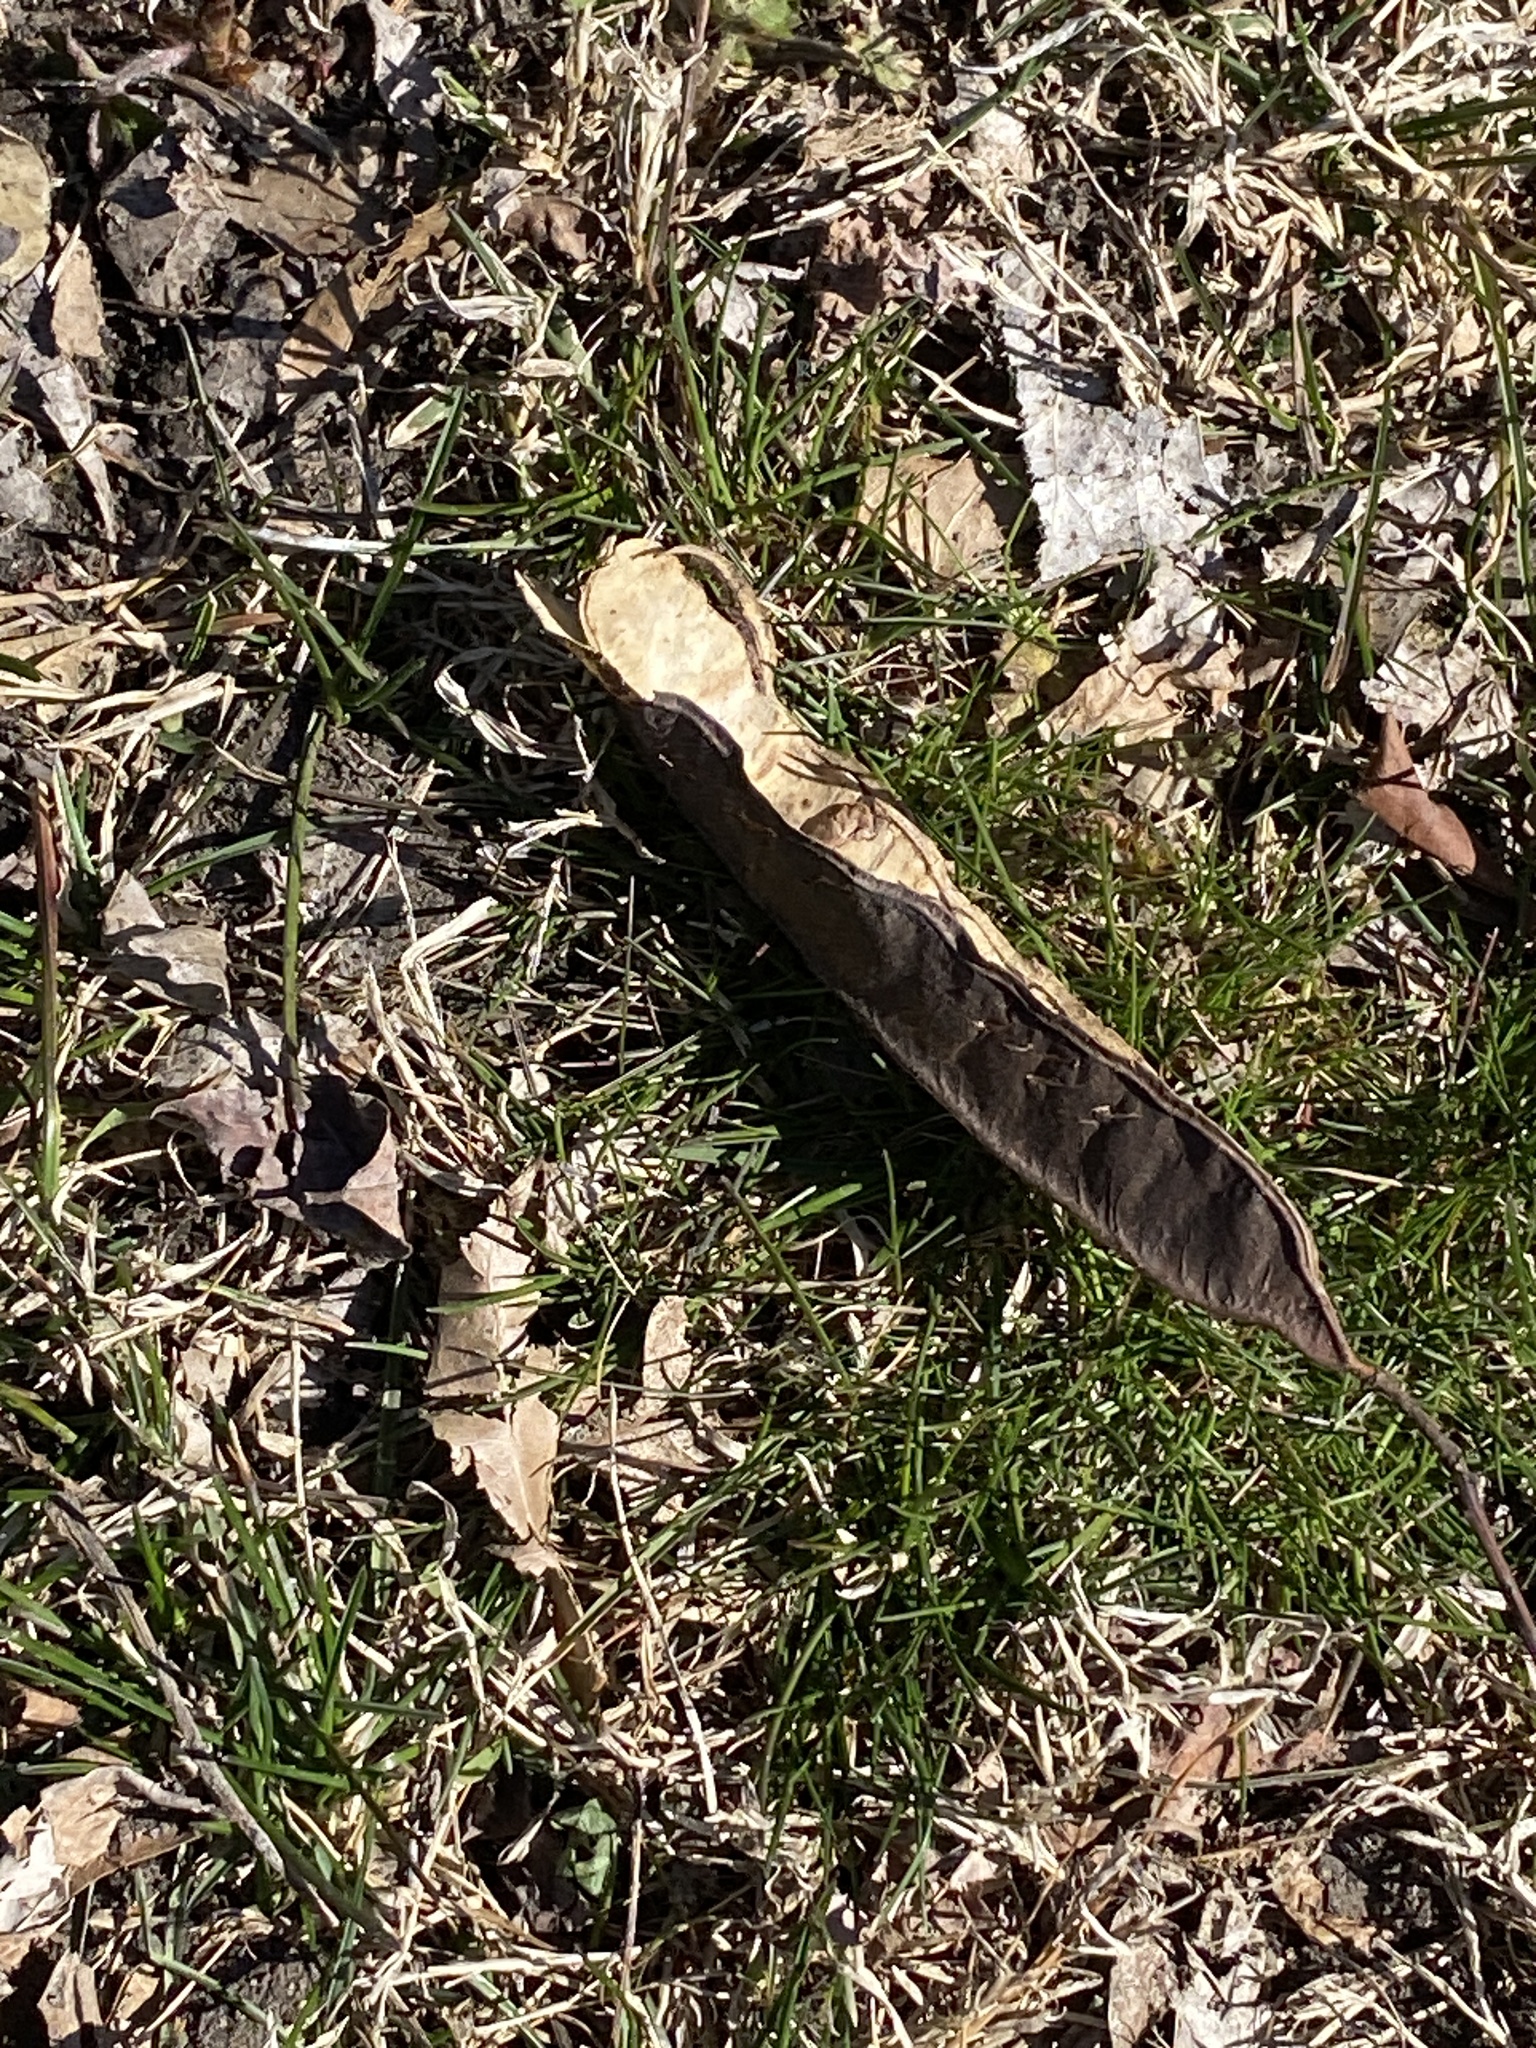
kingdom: Plantae
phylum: Tracheophyta
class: Magnoliopsida
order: Fabales
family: Fabaceae
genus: Robinia
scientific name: Robinia pseudoacacia
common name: Black locust
